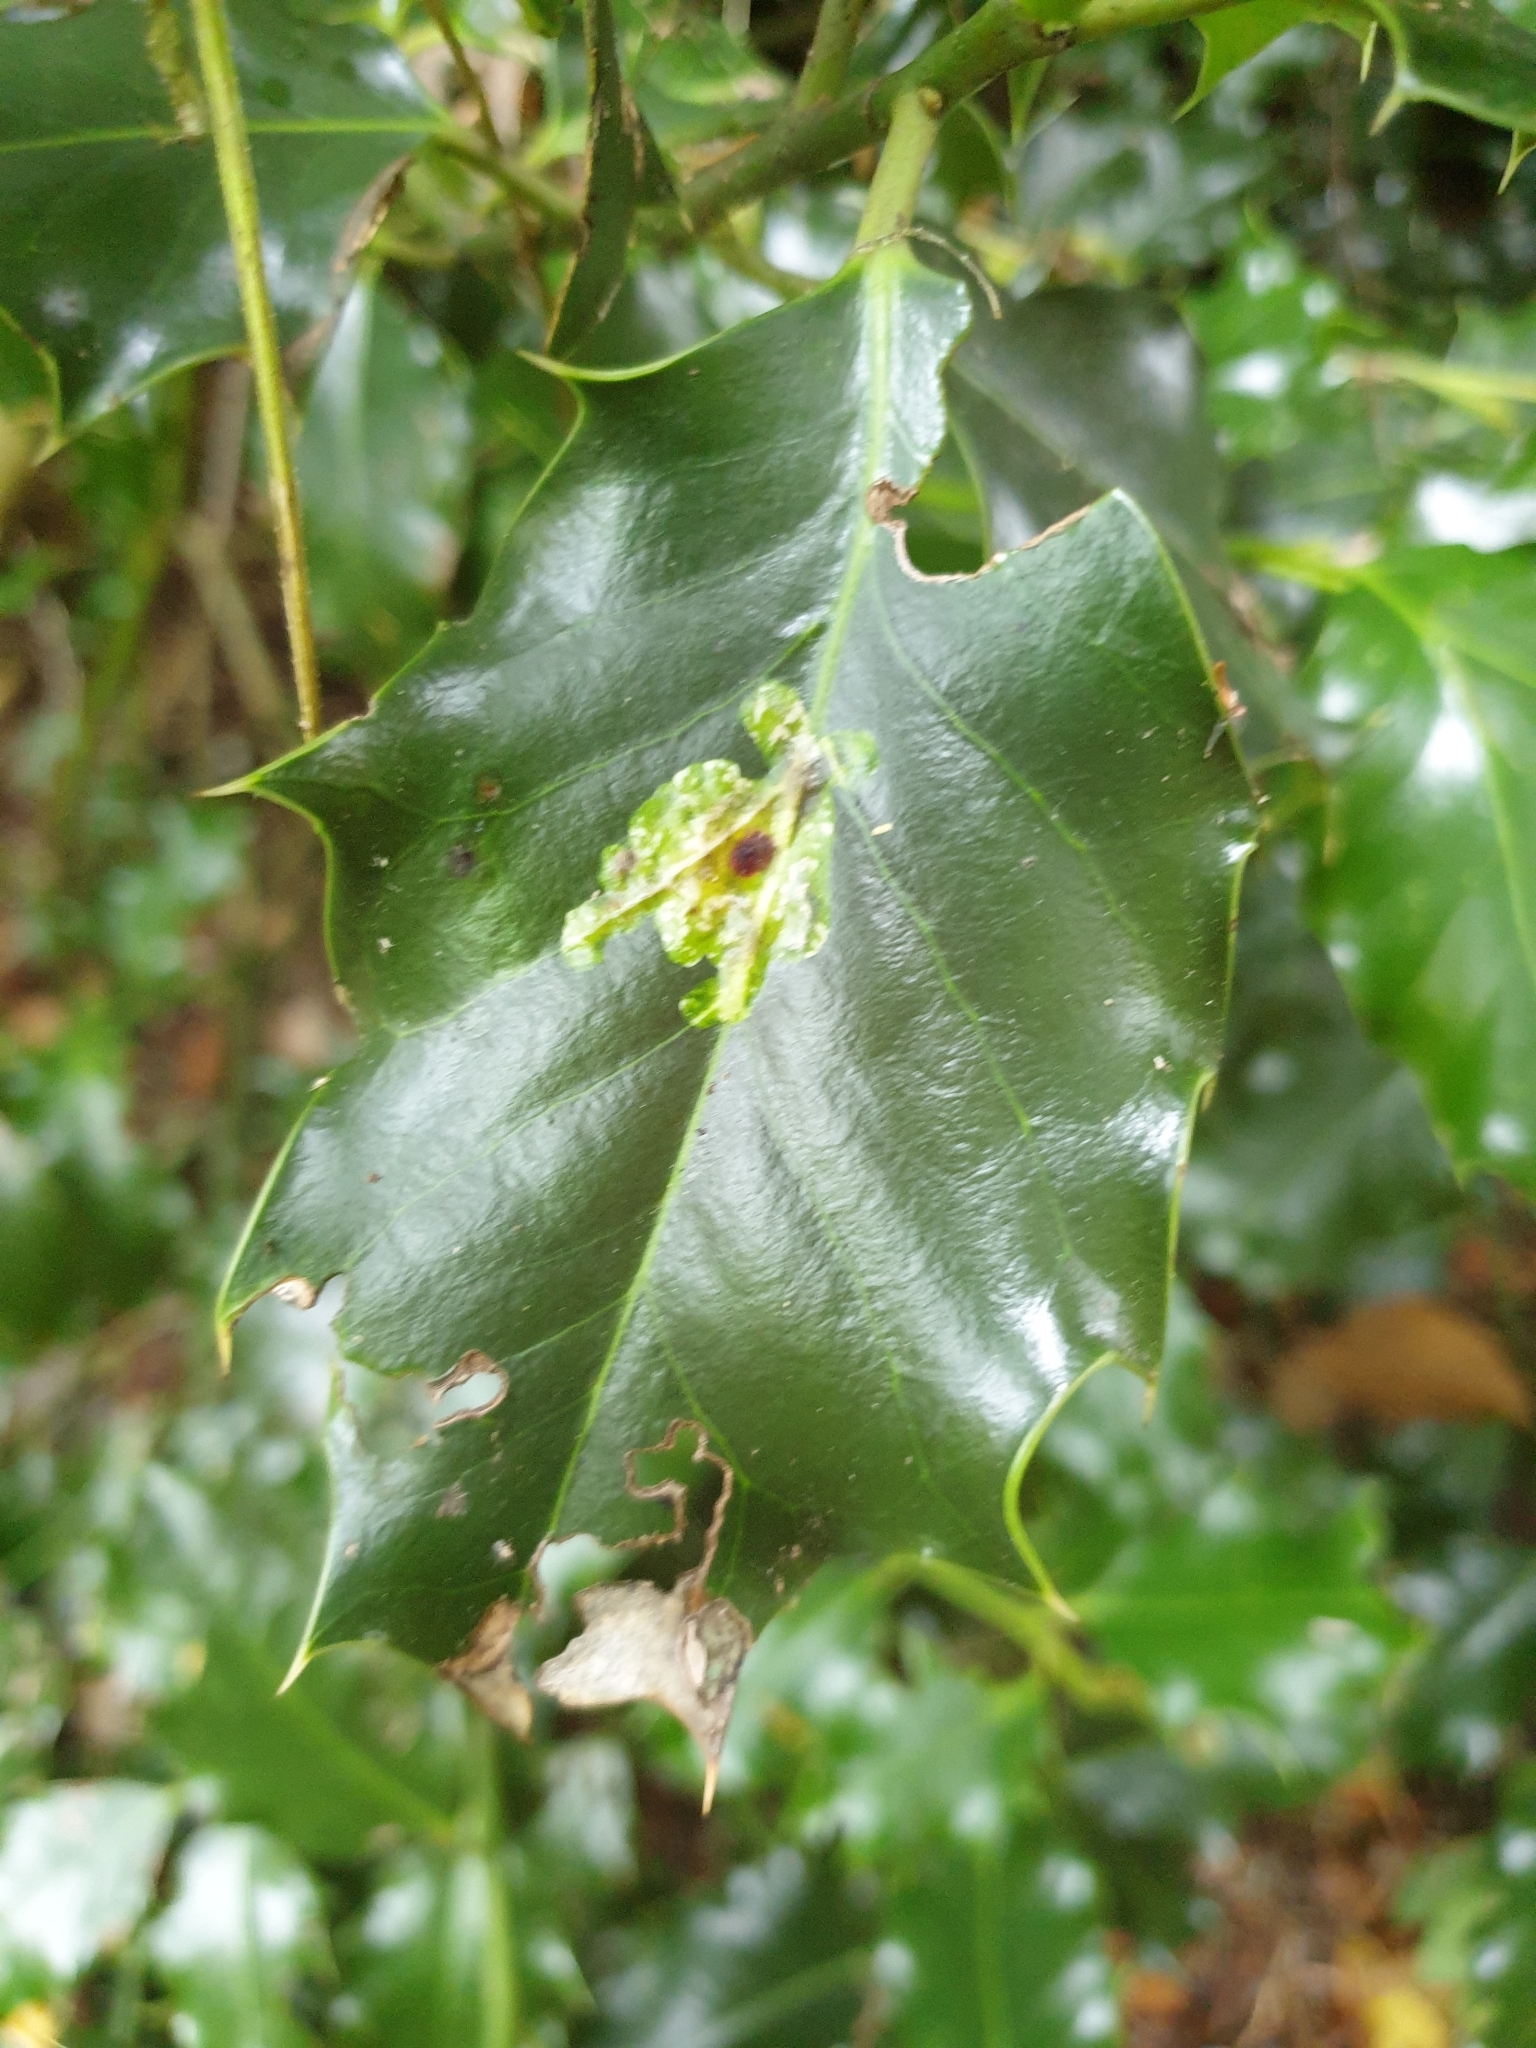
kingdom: Animalia
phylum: Arthropoda
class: Insecta
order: Diptera
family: Agromyzidae
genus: Phytomyza
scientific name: Phytomyza ilicis
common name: Holly leafminer
